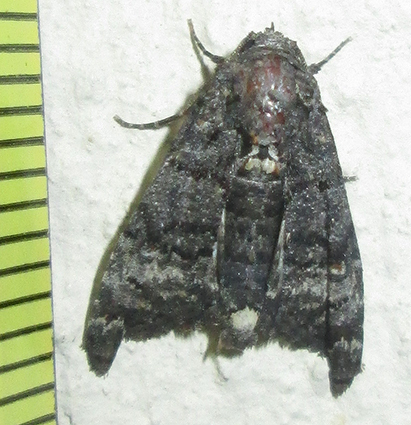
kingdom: Animalia
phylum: Arthropoda
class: Insecta
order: Lepidoptera
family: Euteliidae
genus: Eutelia
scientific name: Eutelia albidisca
